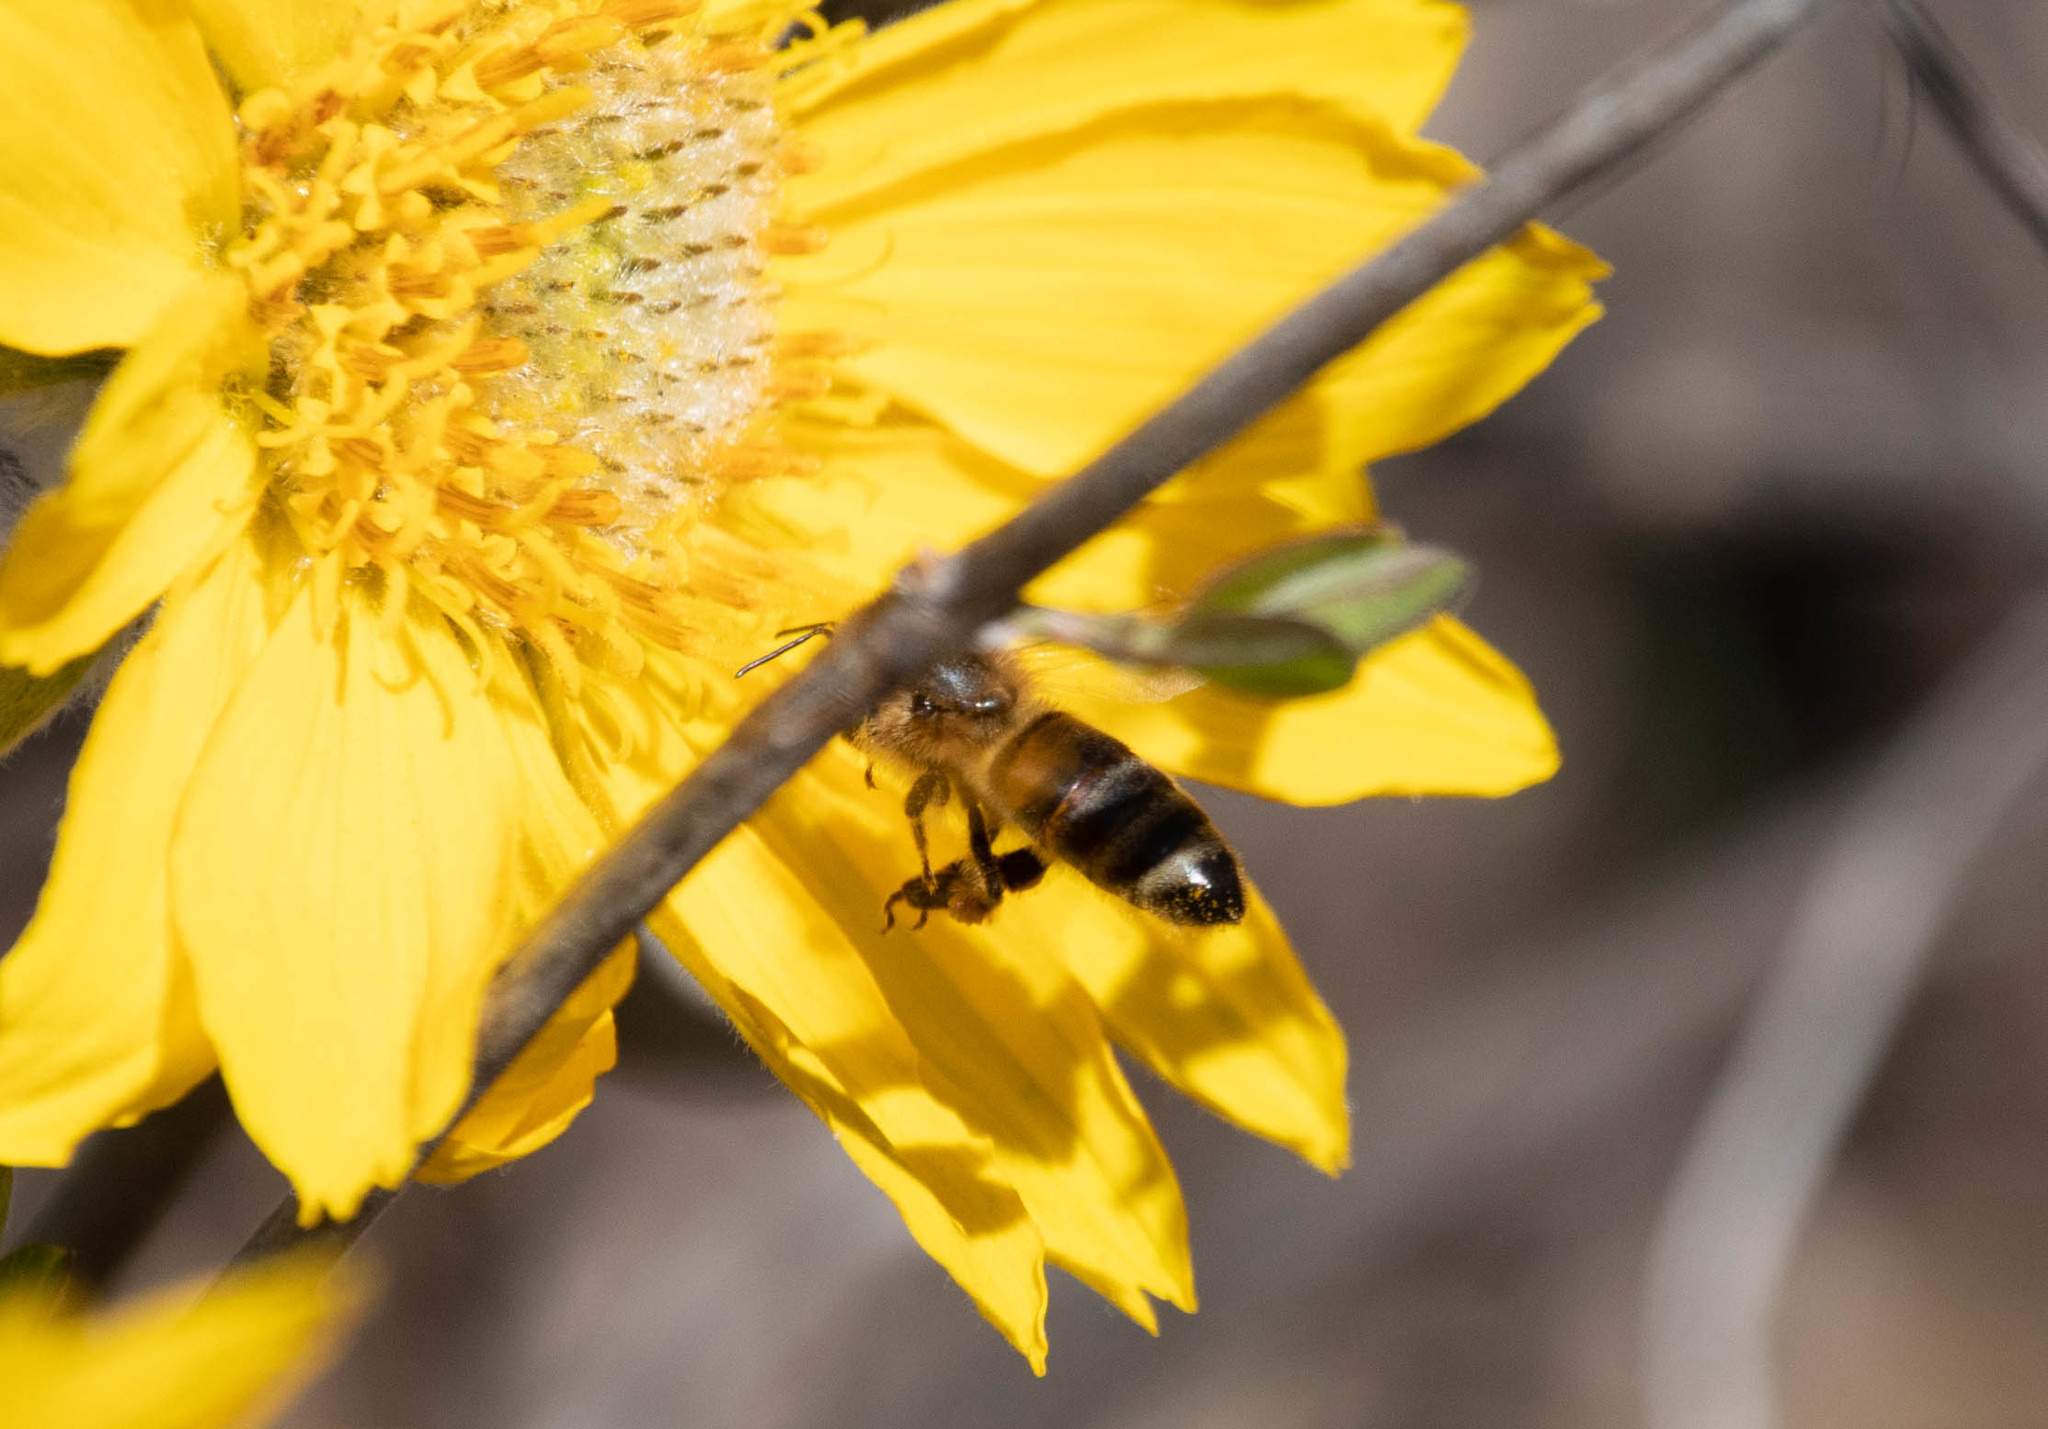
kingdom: Animalia
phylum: Arthropoda
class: Insecta
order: Hymenoptera
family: Apidae
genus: Apis
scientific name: Apis mellifera
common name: Honey bee
